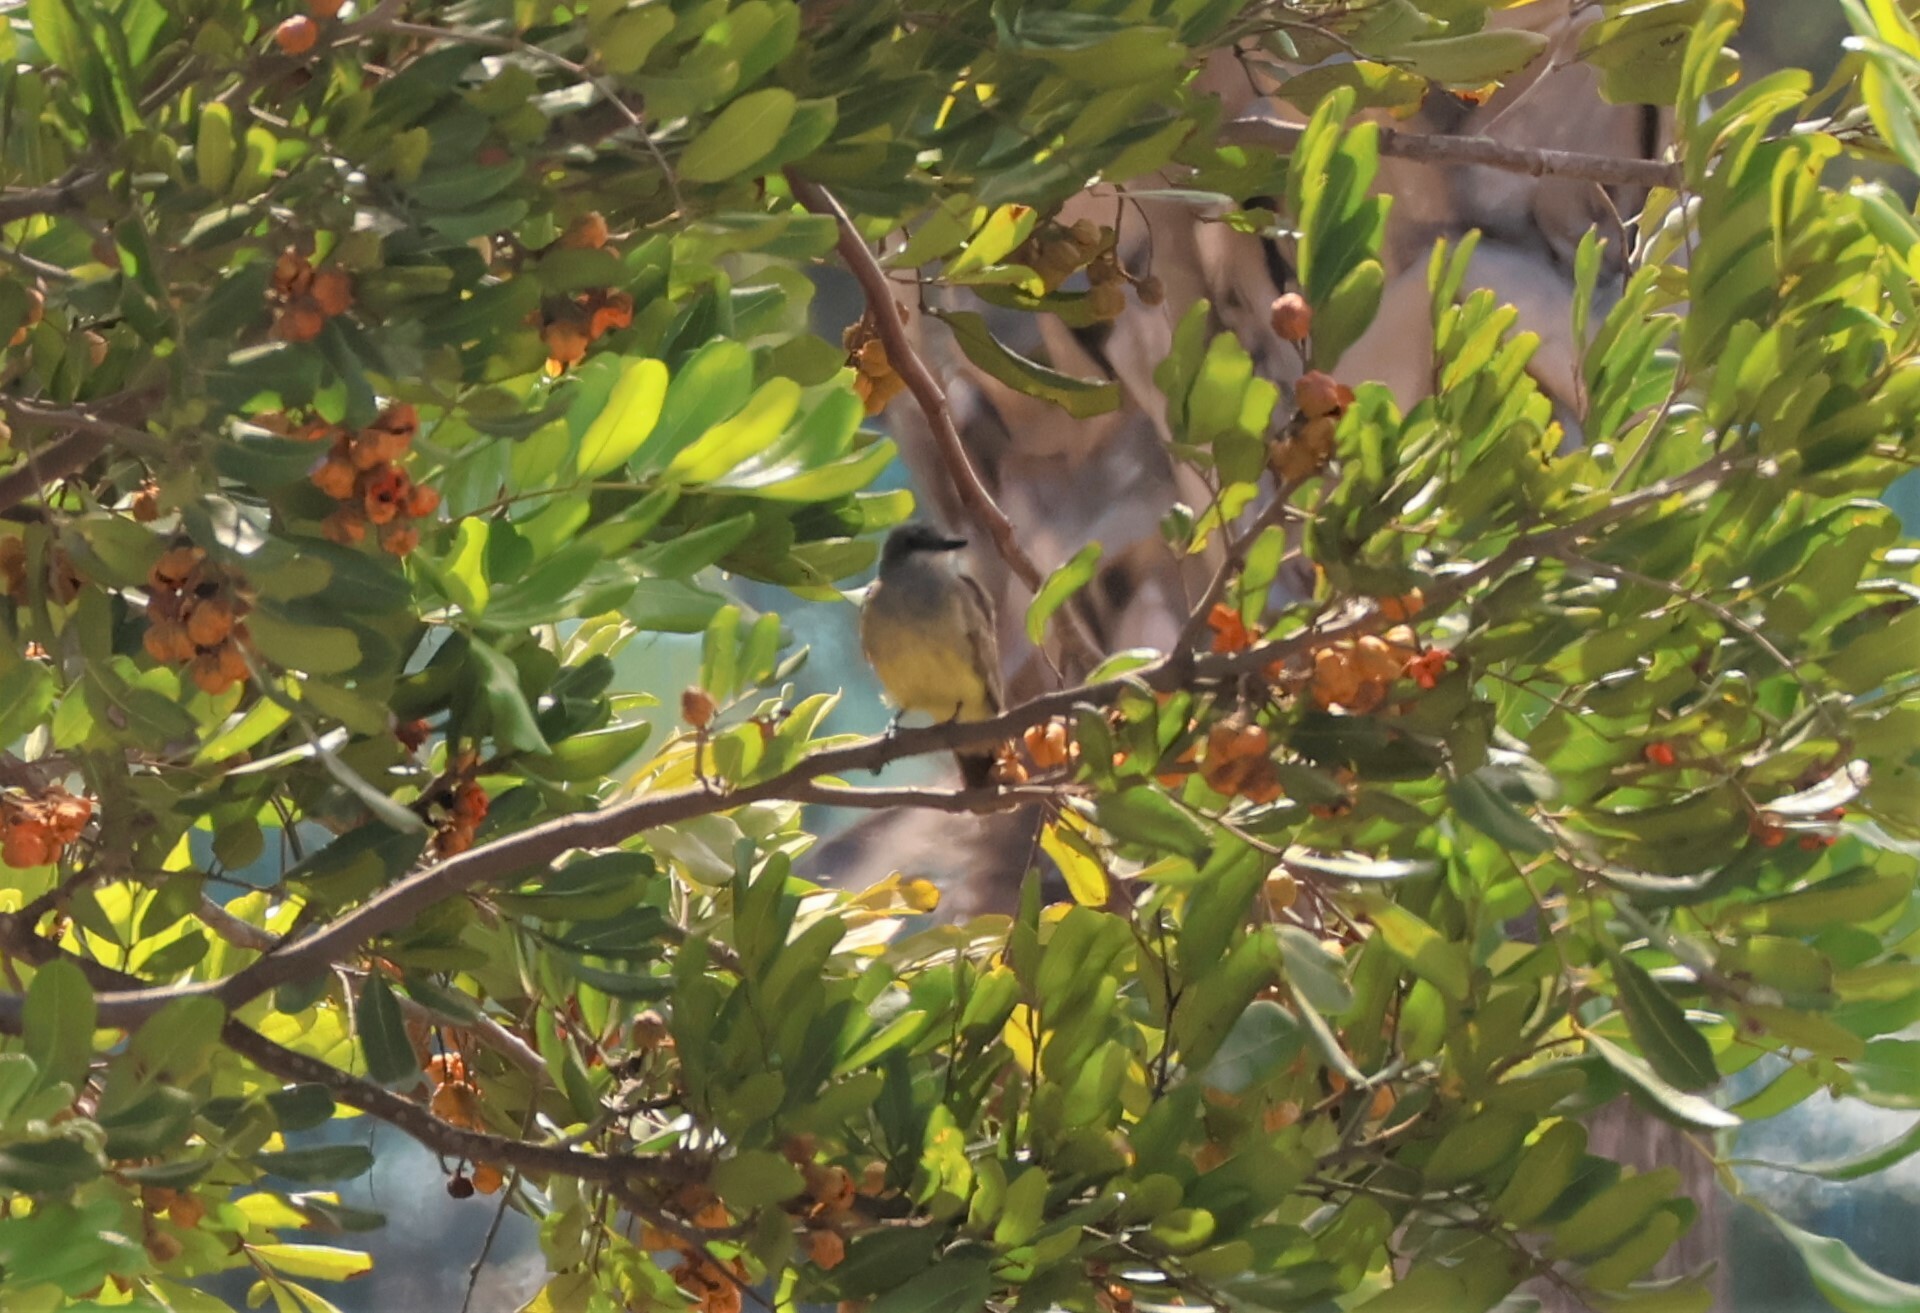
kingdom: Animalia
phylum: Chordata
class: Aves
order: Passeriformes
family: Tyrannidae
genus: Tyrannus
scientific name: Tyrannus vociferans
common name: Cassin's kingbird
